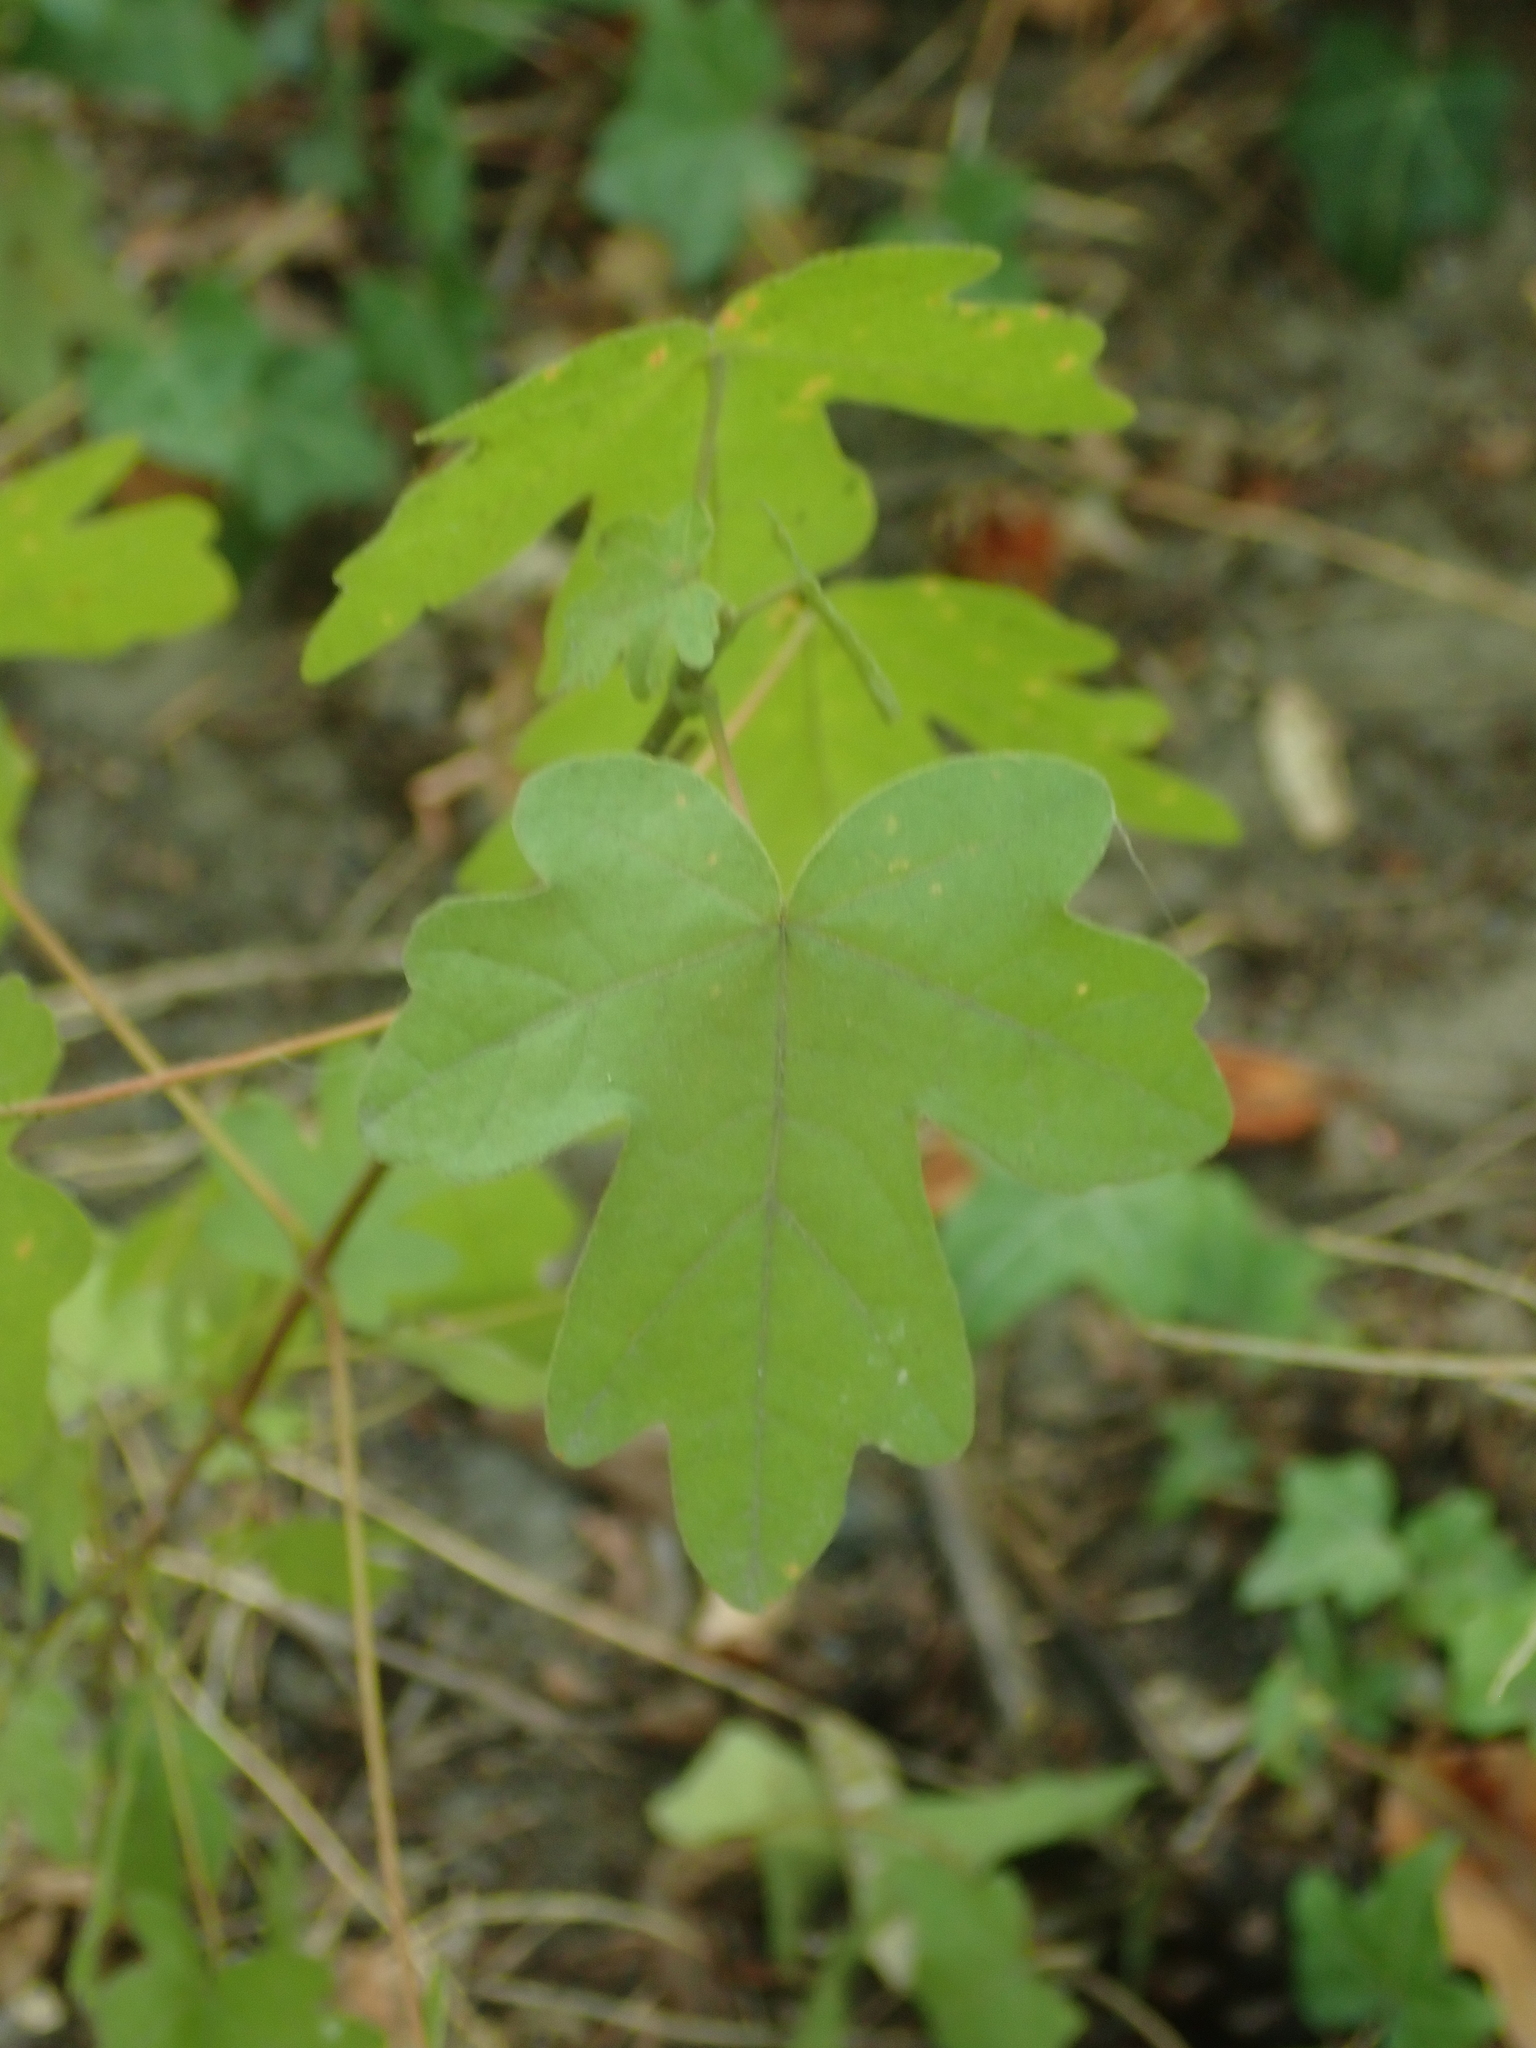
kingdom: Plantae
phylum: Tracheophyta
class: Magnoliopsida
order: Sapindales
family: Sapindaceae
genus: Acer
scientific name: Acer campestre
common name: Field maple
